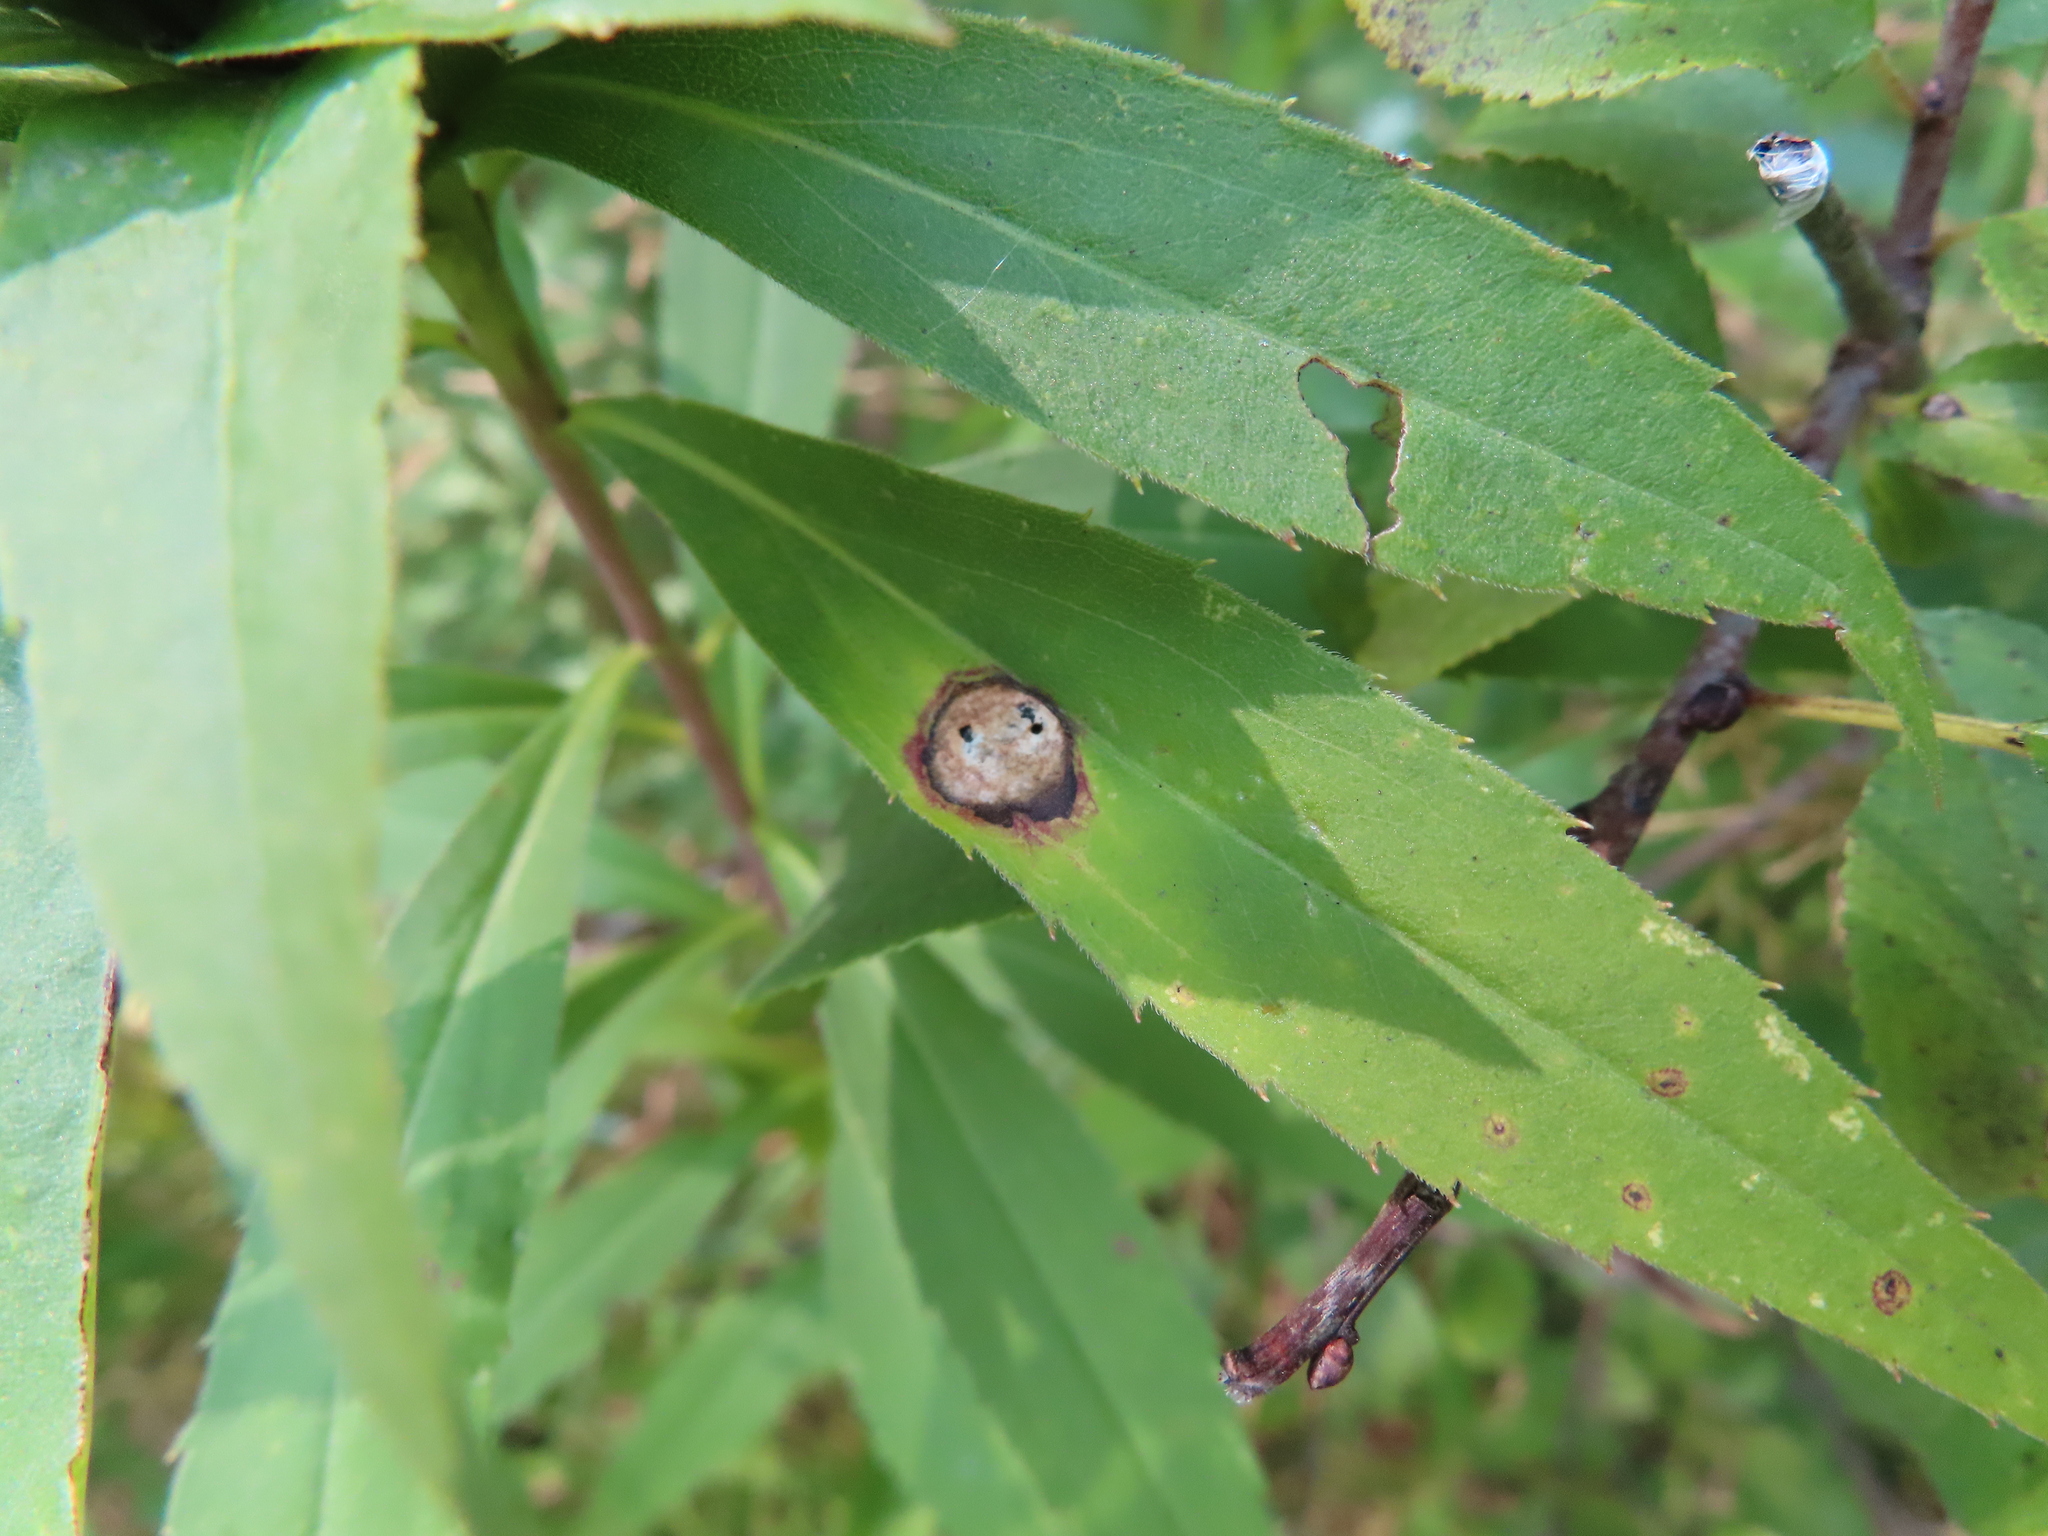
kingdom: Animalia
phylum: Arthropoda
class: Insecta
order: Diptera
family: Cecidomyiidae
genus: Asteromyia
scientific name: Asteromyia carbonifera
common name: Carbonifera goldenrod gall midge
